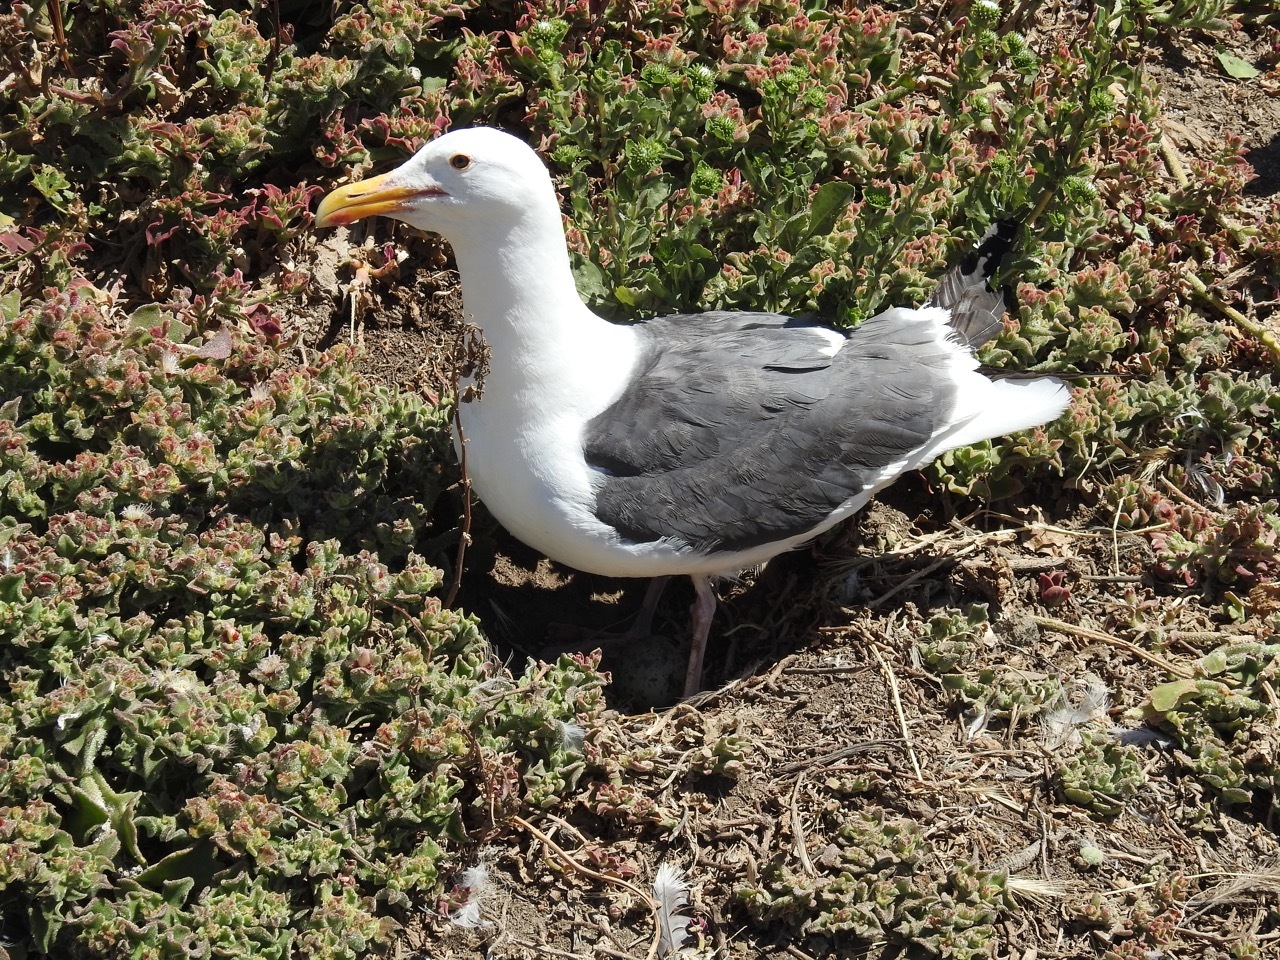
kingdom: Animalia
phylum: Chordata
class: Aves
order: Charadriiformes
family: Laridae
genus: Larus
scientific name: Larus occidentalis
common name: Western gull
